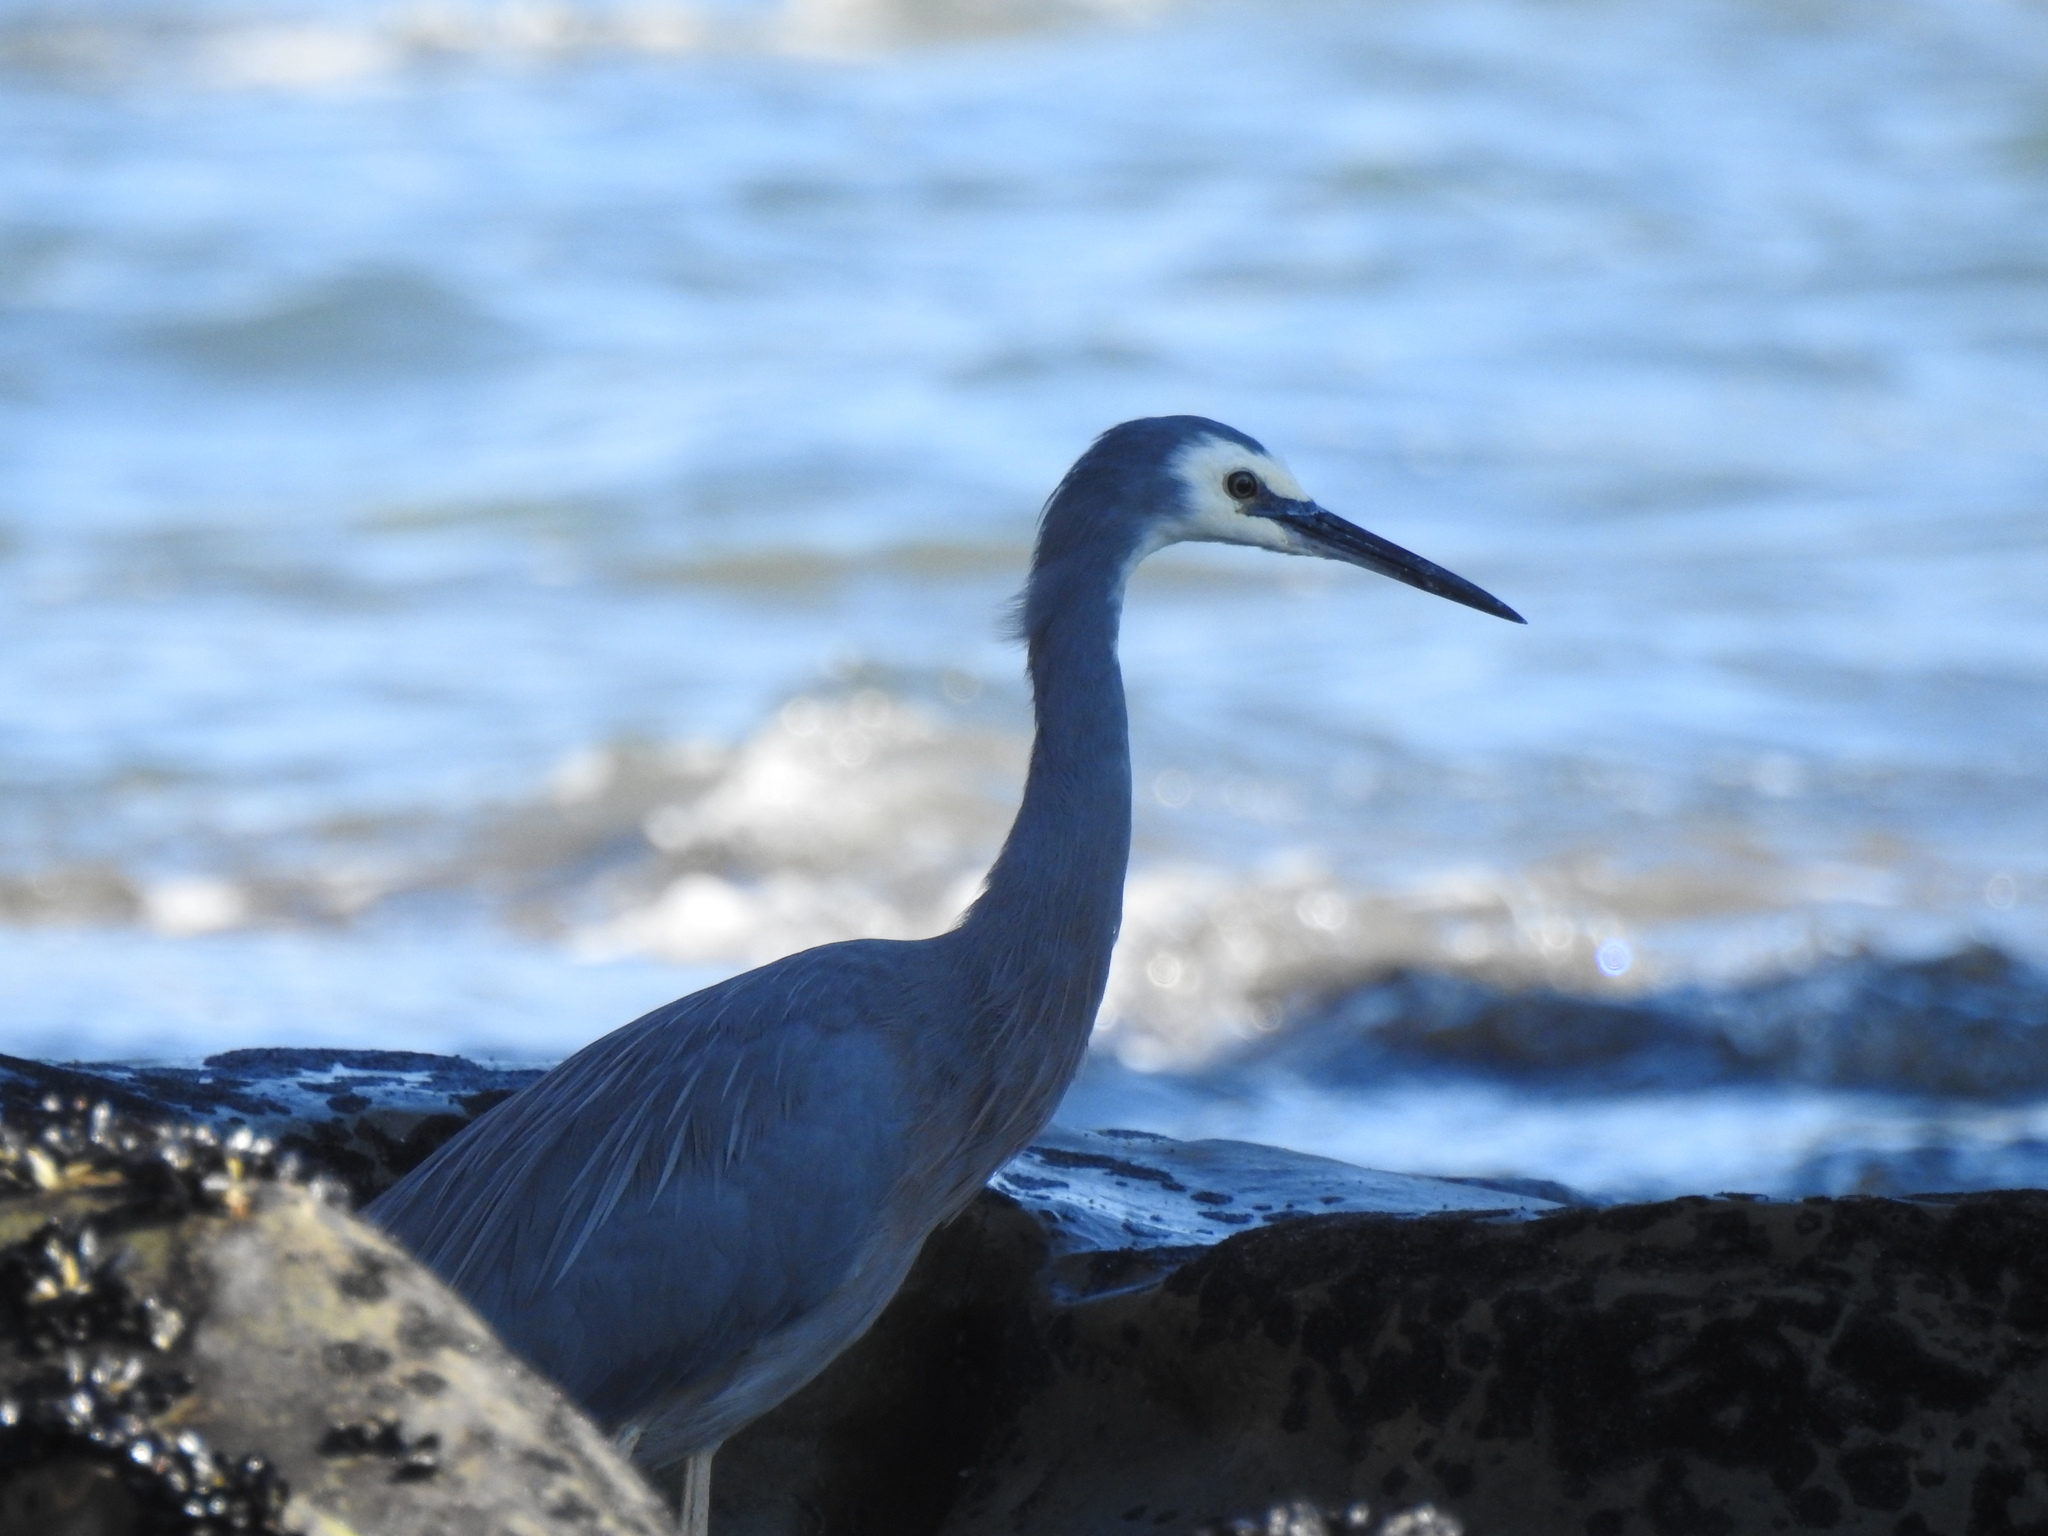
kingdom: Animalia
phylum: Chordata
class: Aves
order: Pelecaniformes
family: Ardeidae
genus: Egretta
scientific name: Egretta novaehollandiae
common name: White-faced heron
